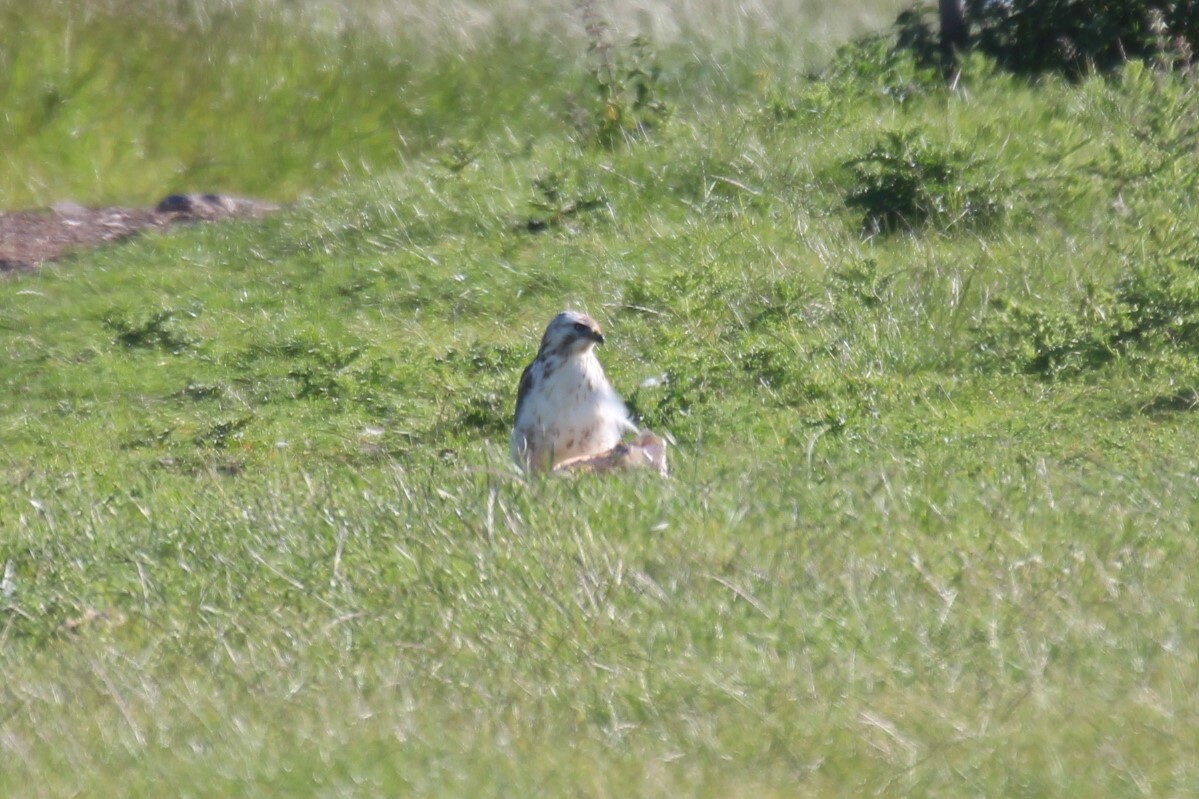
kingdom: Animalia
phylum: Chordata
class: Aves
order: Accipitriformes
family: Accipitridae
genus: Buteo
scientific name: Buteo buteo
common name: Common buzzard
